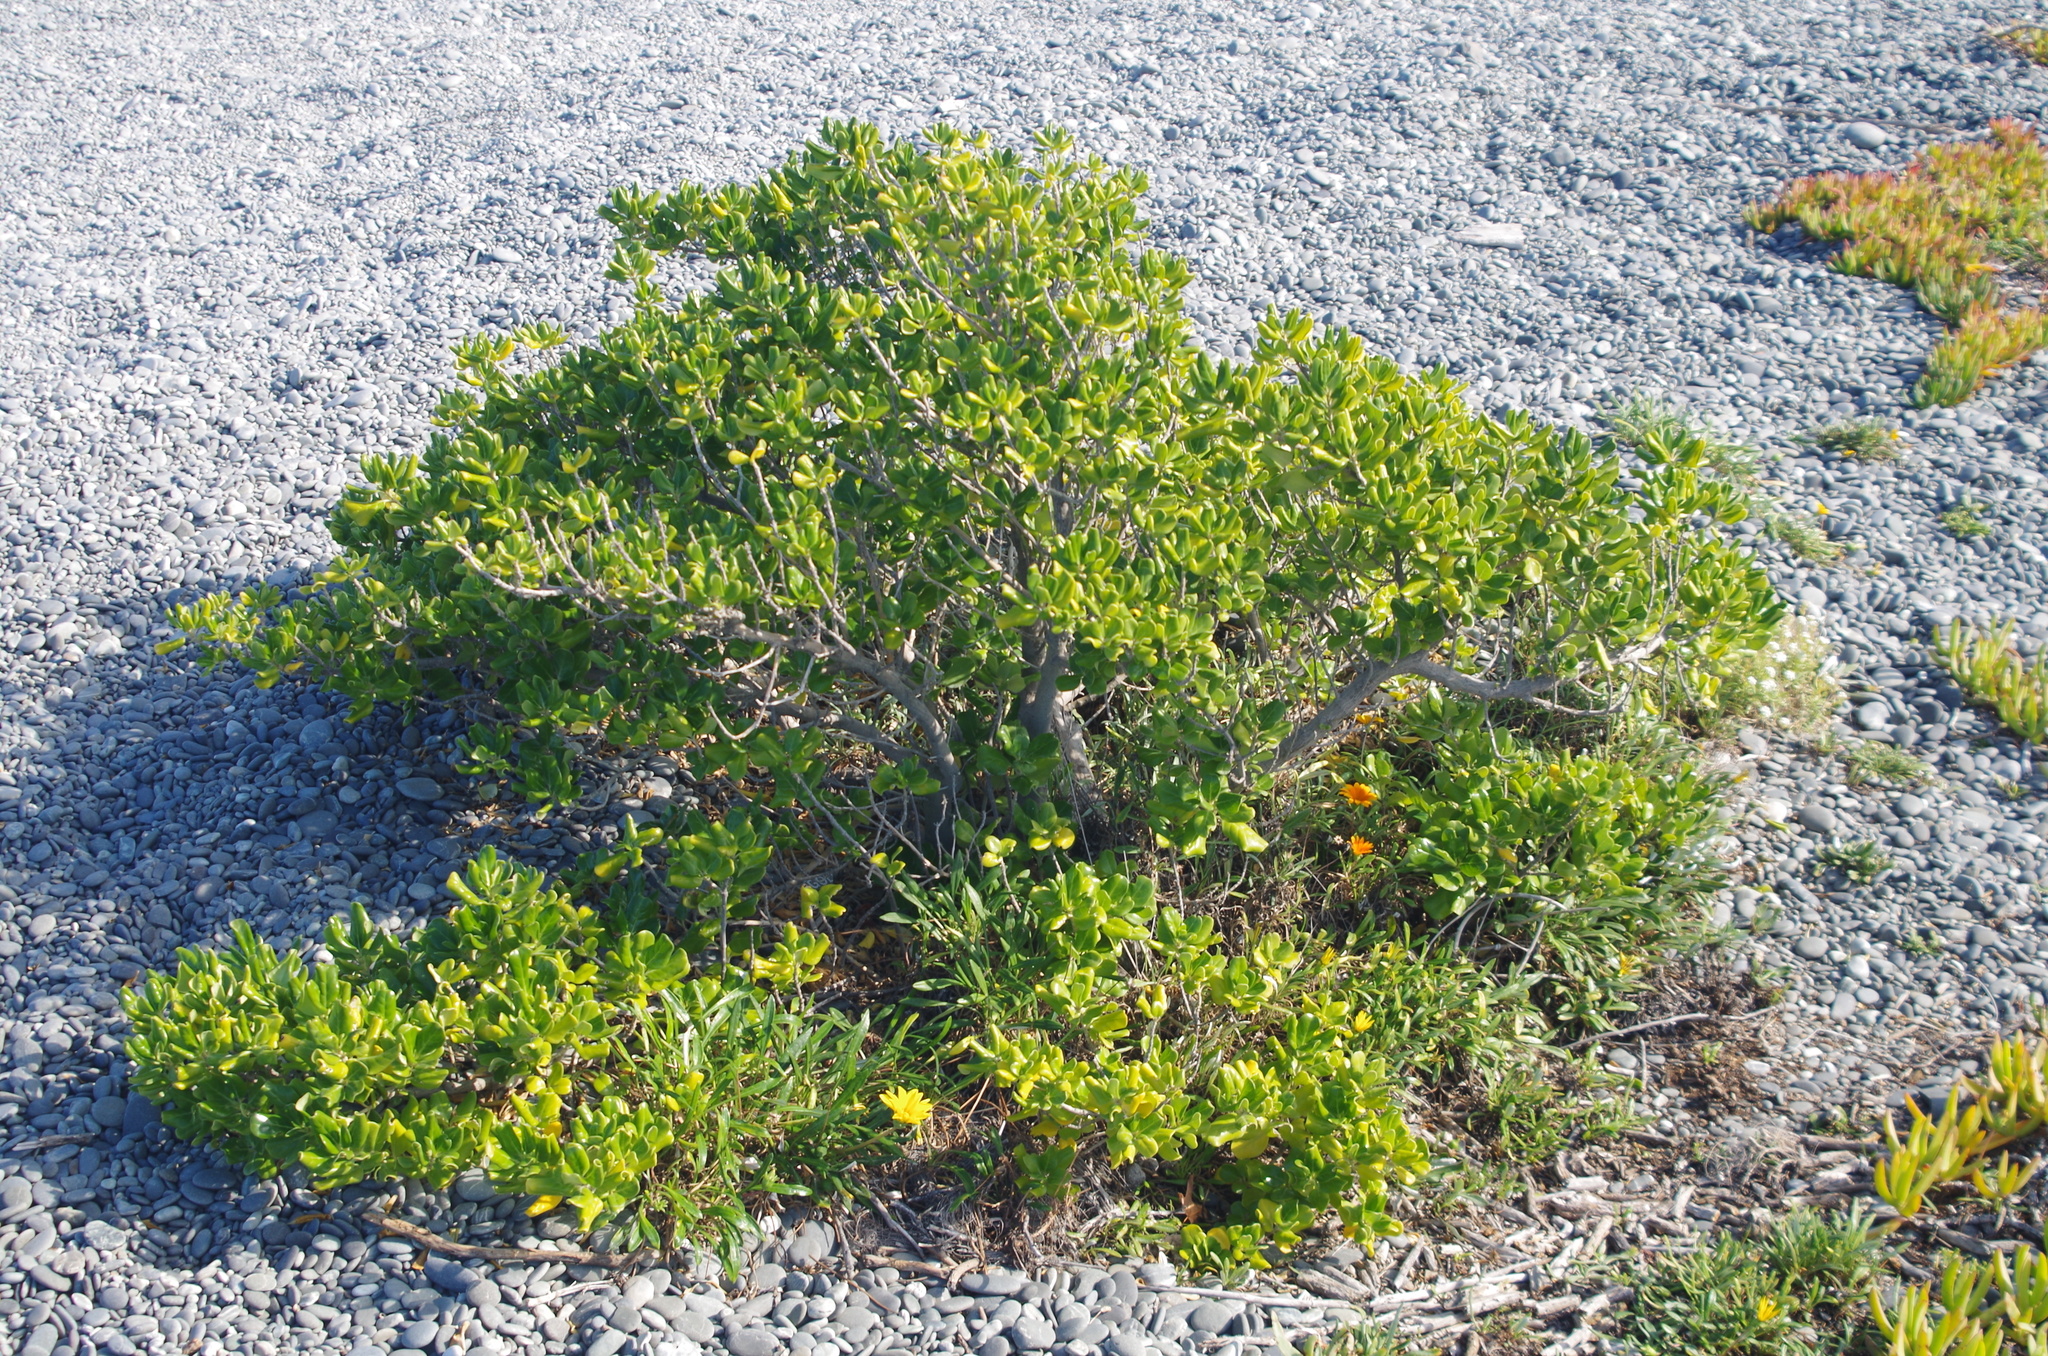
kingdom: Plantae
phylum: Tracheophyta
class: Magnoliopsida
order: Gentianales
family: Rubiaceae
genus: Coprosma
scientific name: Coprosma repens
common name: Tree bedstraw
